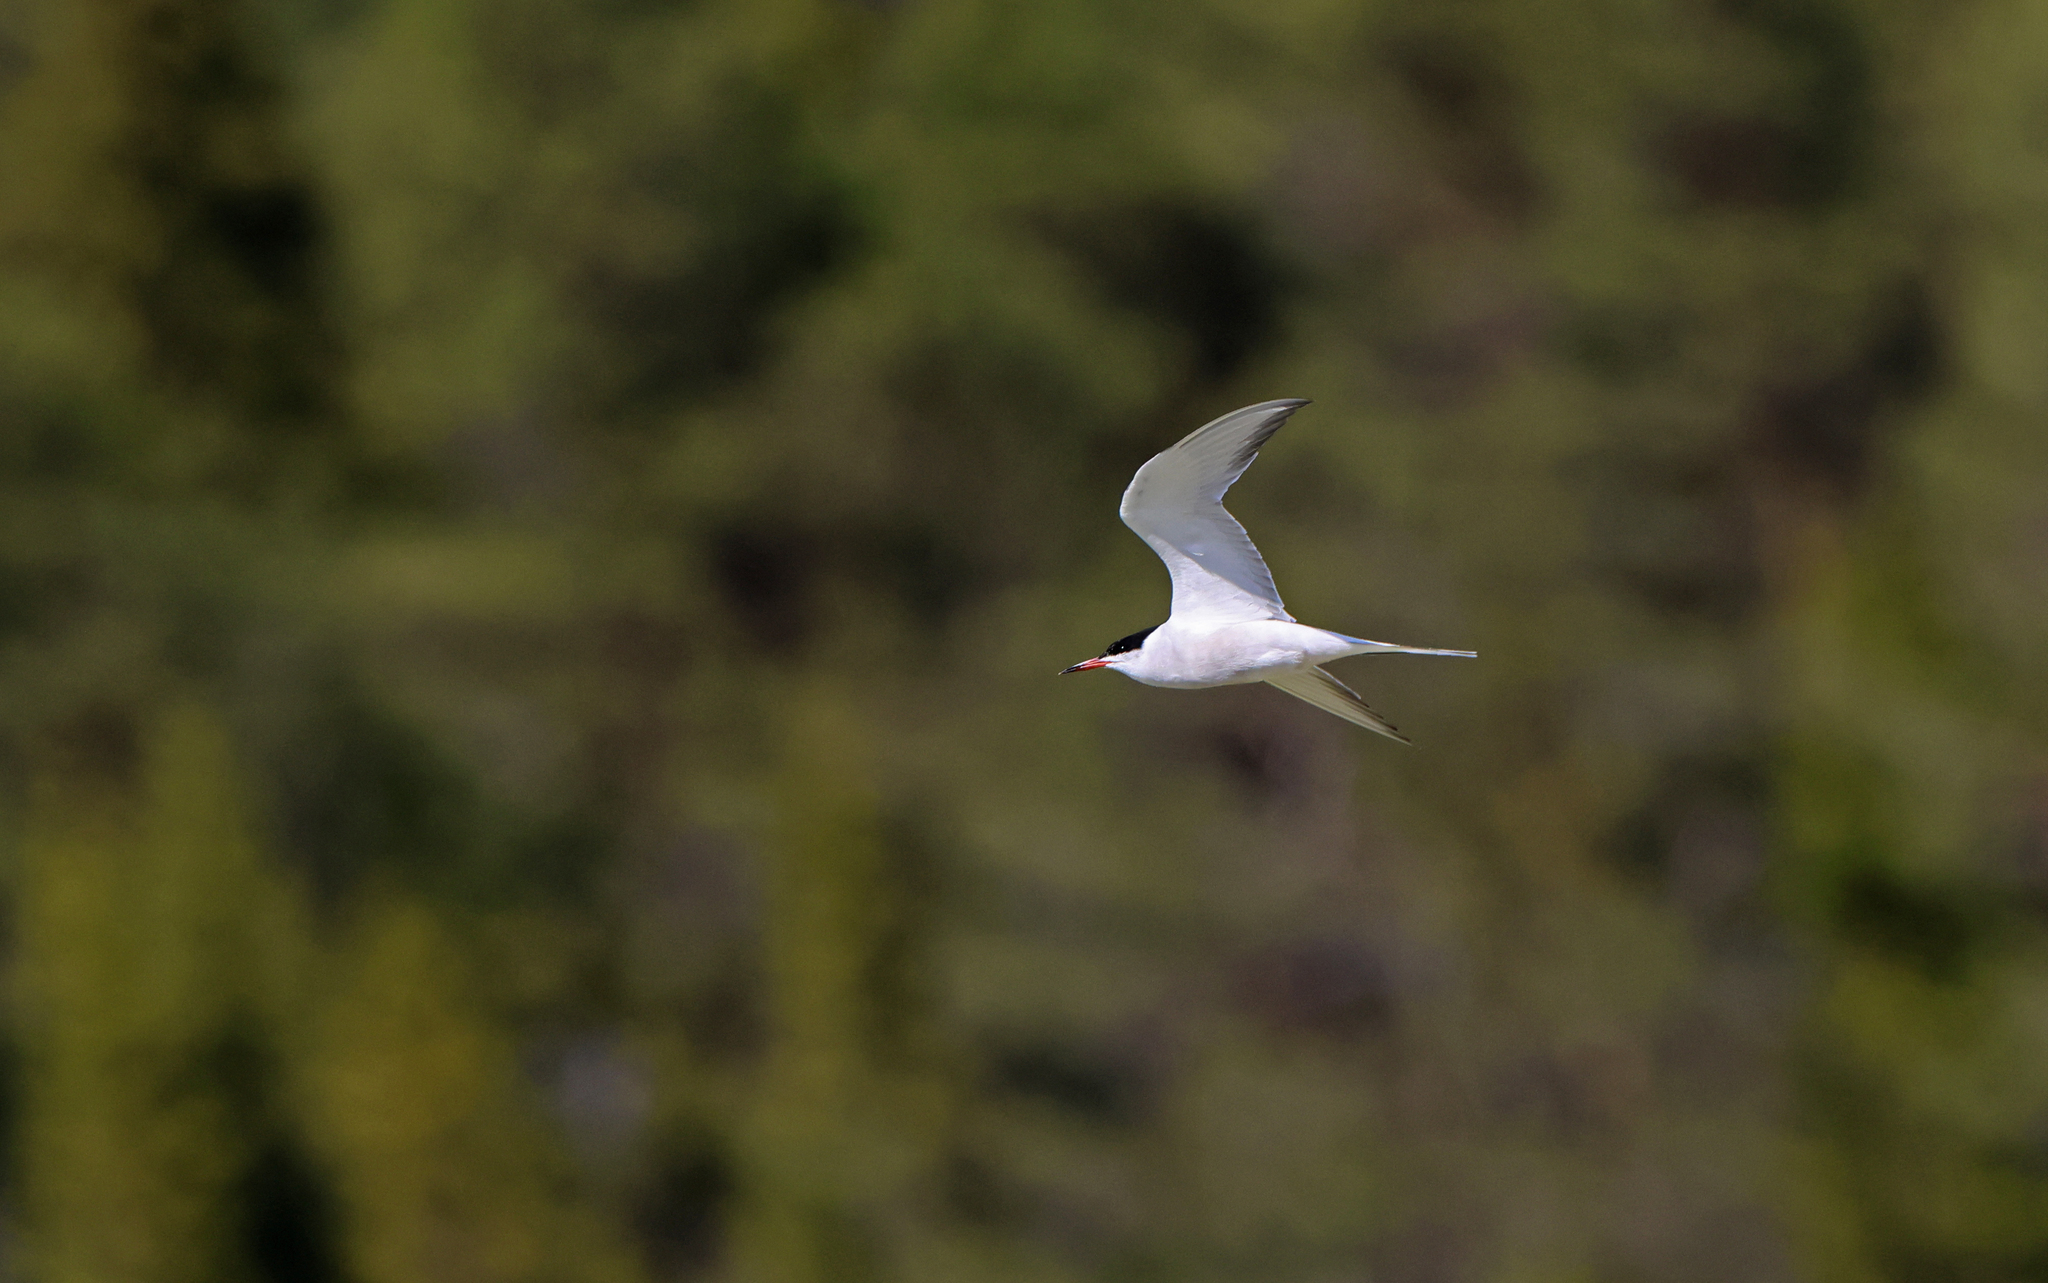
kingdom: Animalia
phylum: Chordata
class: Aves
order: Charadriiformes
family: Laridae
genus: Sterna
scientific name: Sterna hirundo
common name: Common tern
